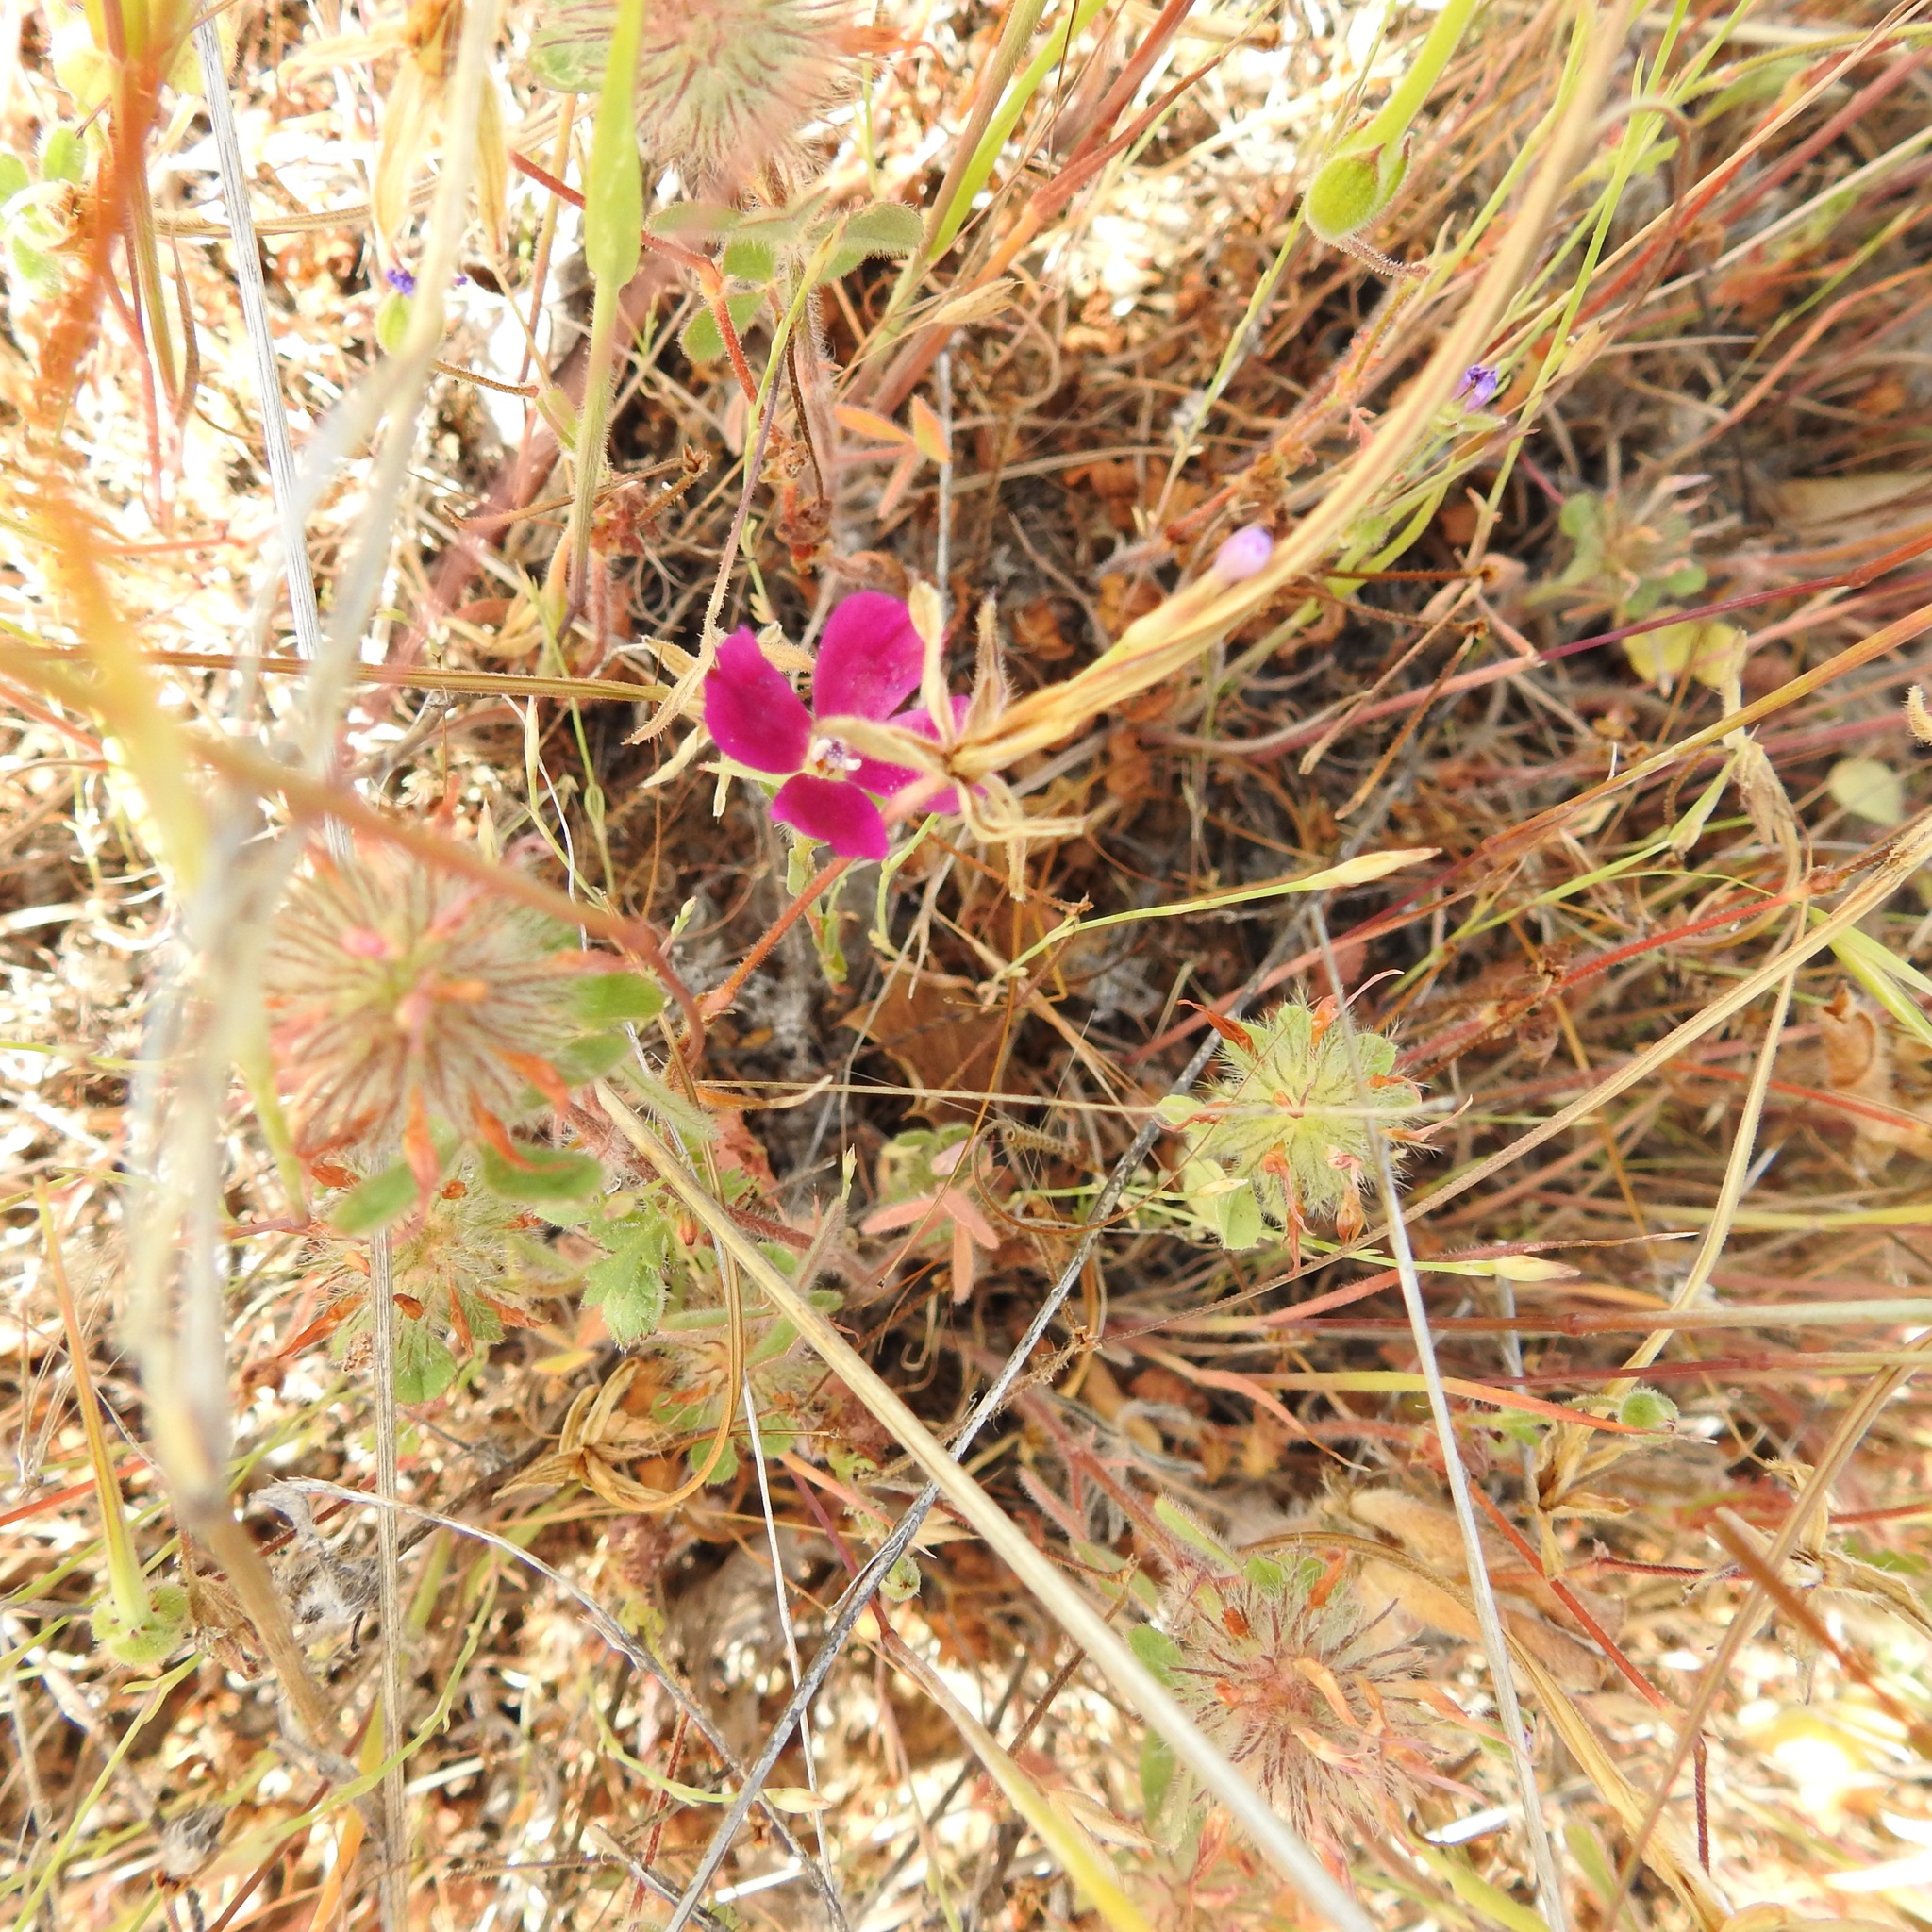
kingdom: Plantae
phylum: Tracheophyta
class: Magnoliopsida
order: Myrtales
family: Onagraceae
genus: Clarkia
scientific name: Clarkia purpurea
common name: Purple clarkia
